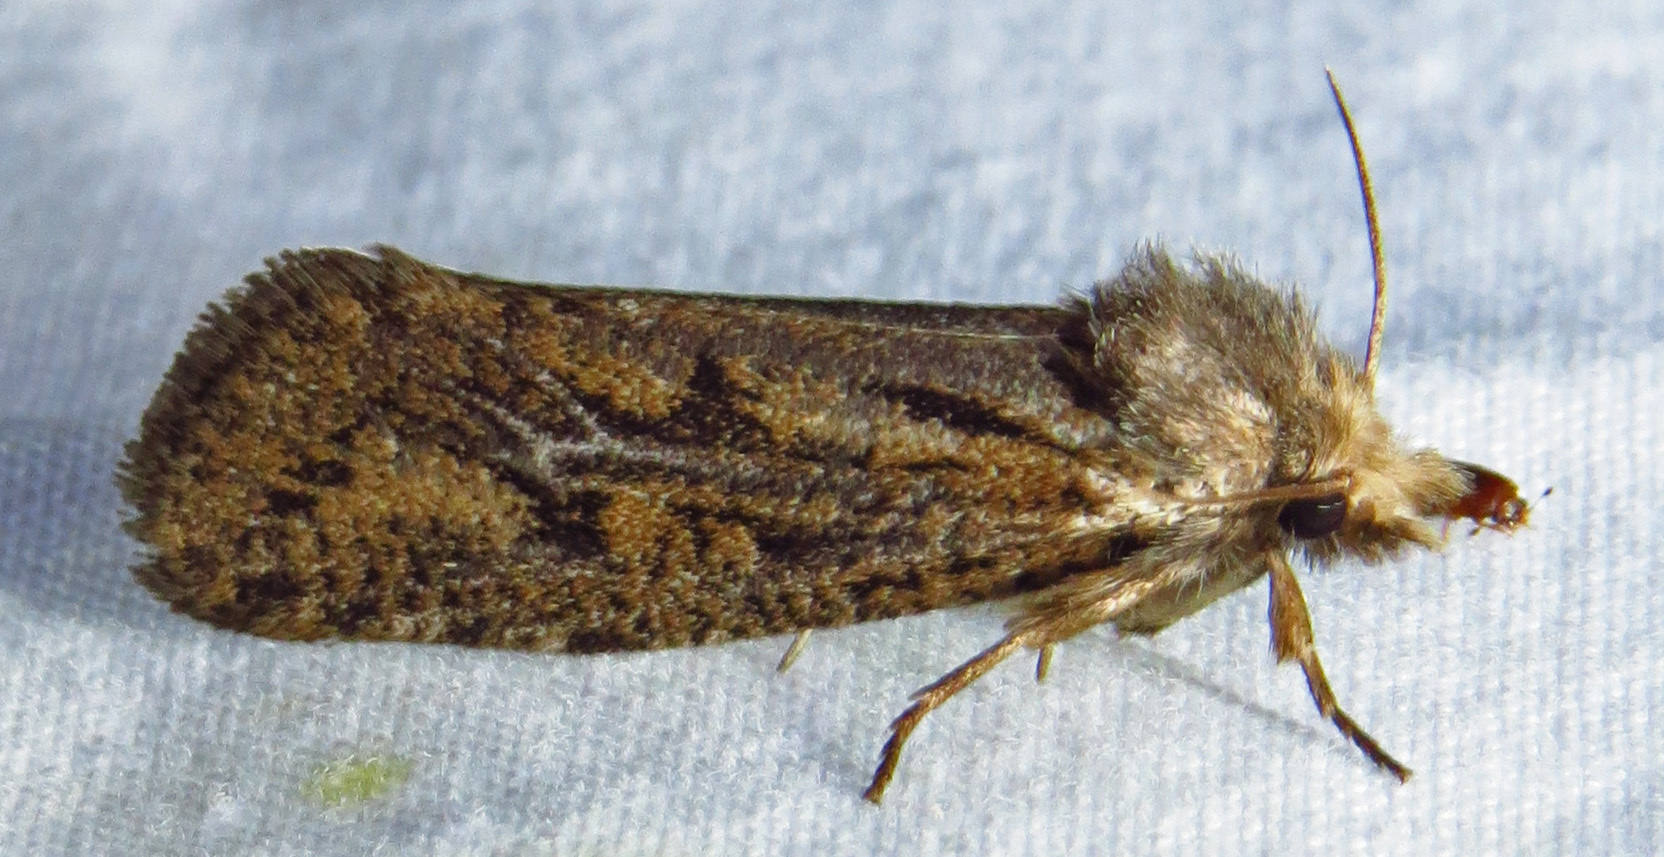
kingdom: Animalia
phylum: Arthropoda
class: Insecta
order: Lepidoptera
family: Tineidae
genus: Acrolophus
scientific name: Acrolophus popeanella
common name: Clemens' grass tubeworm moth
